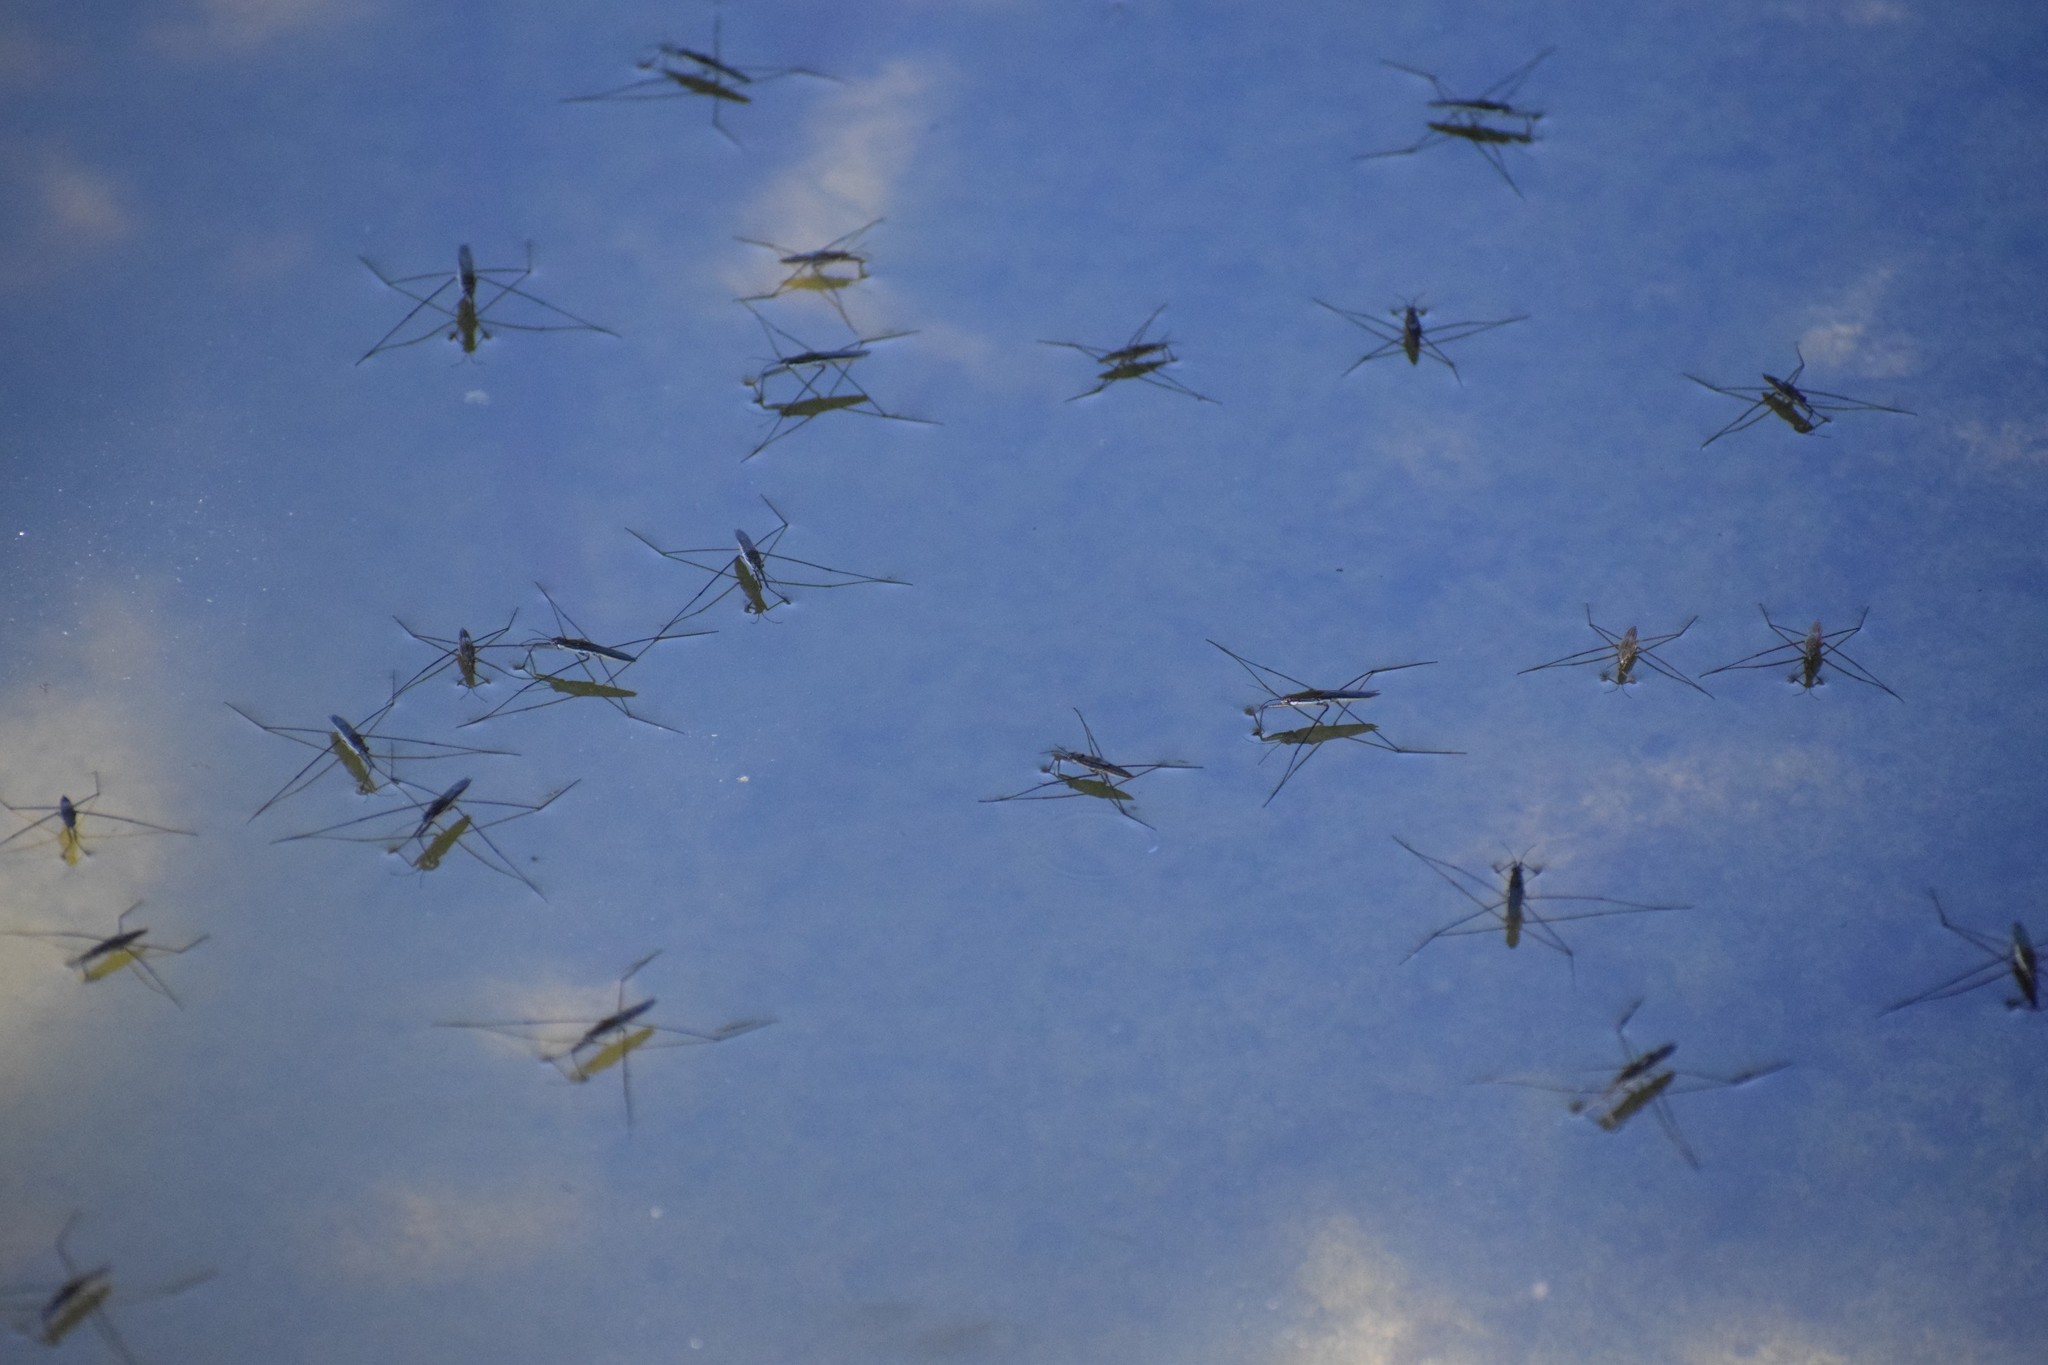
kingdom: Animalia
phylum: Arthropoda
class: Insecta
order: Hemiptera
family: Gerridae
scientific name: Gerridae
